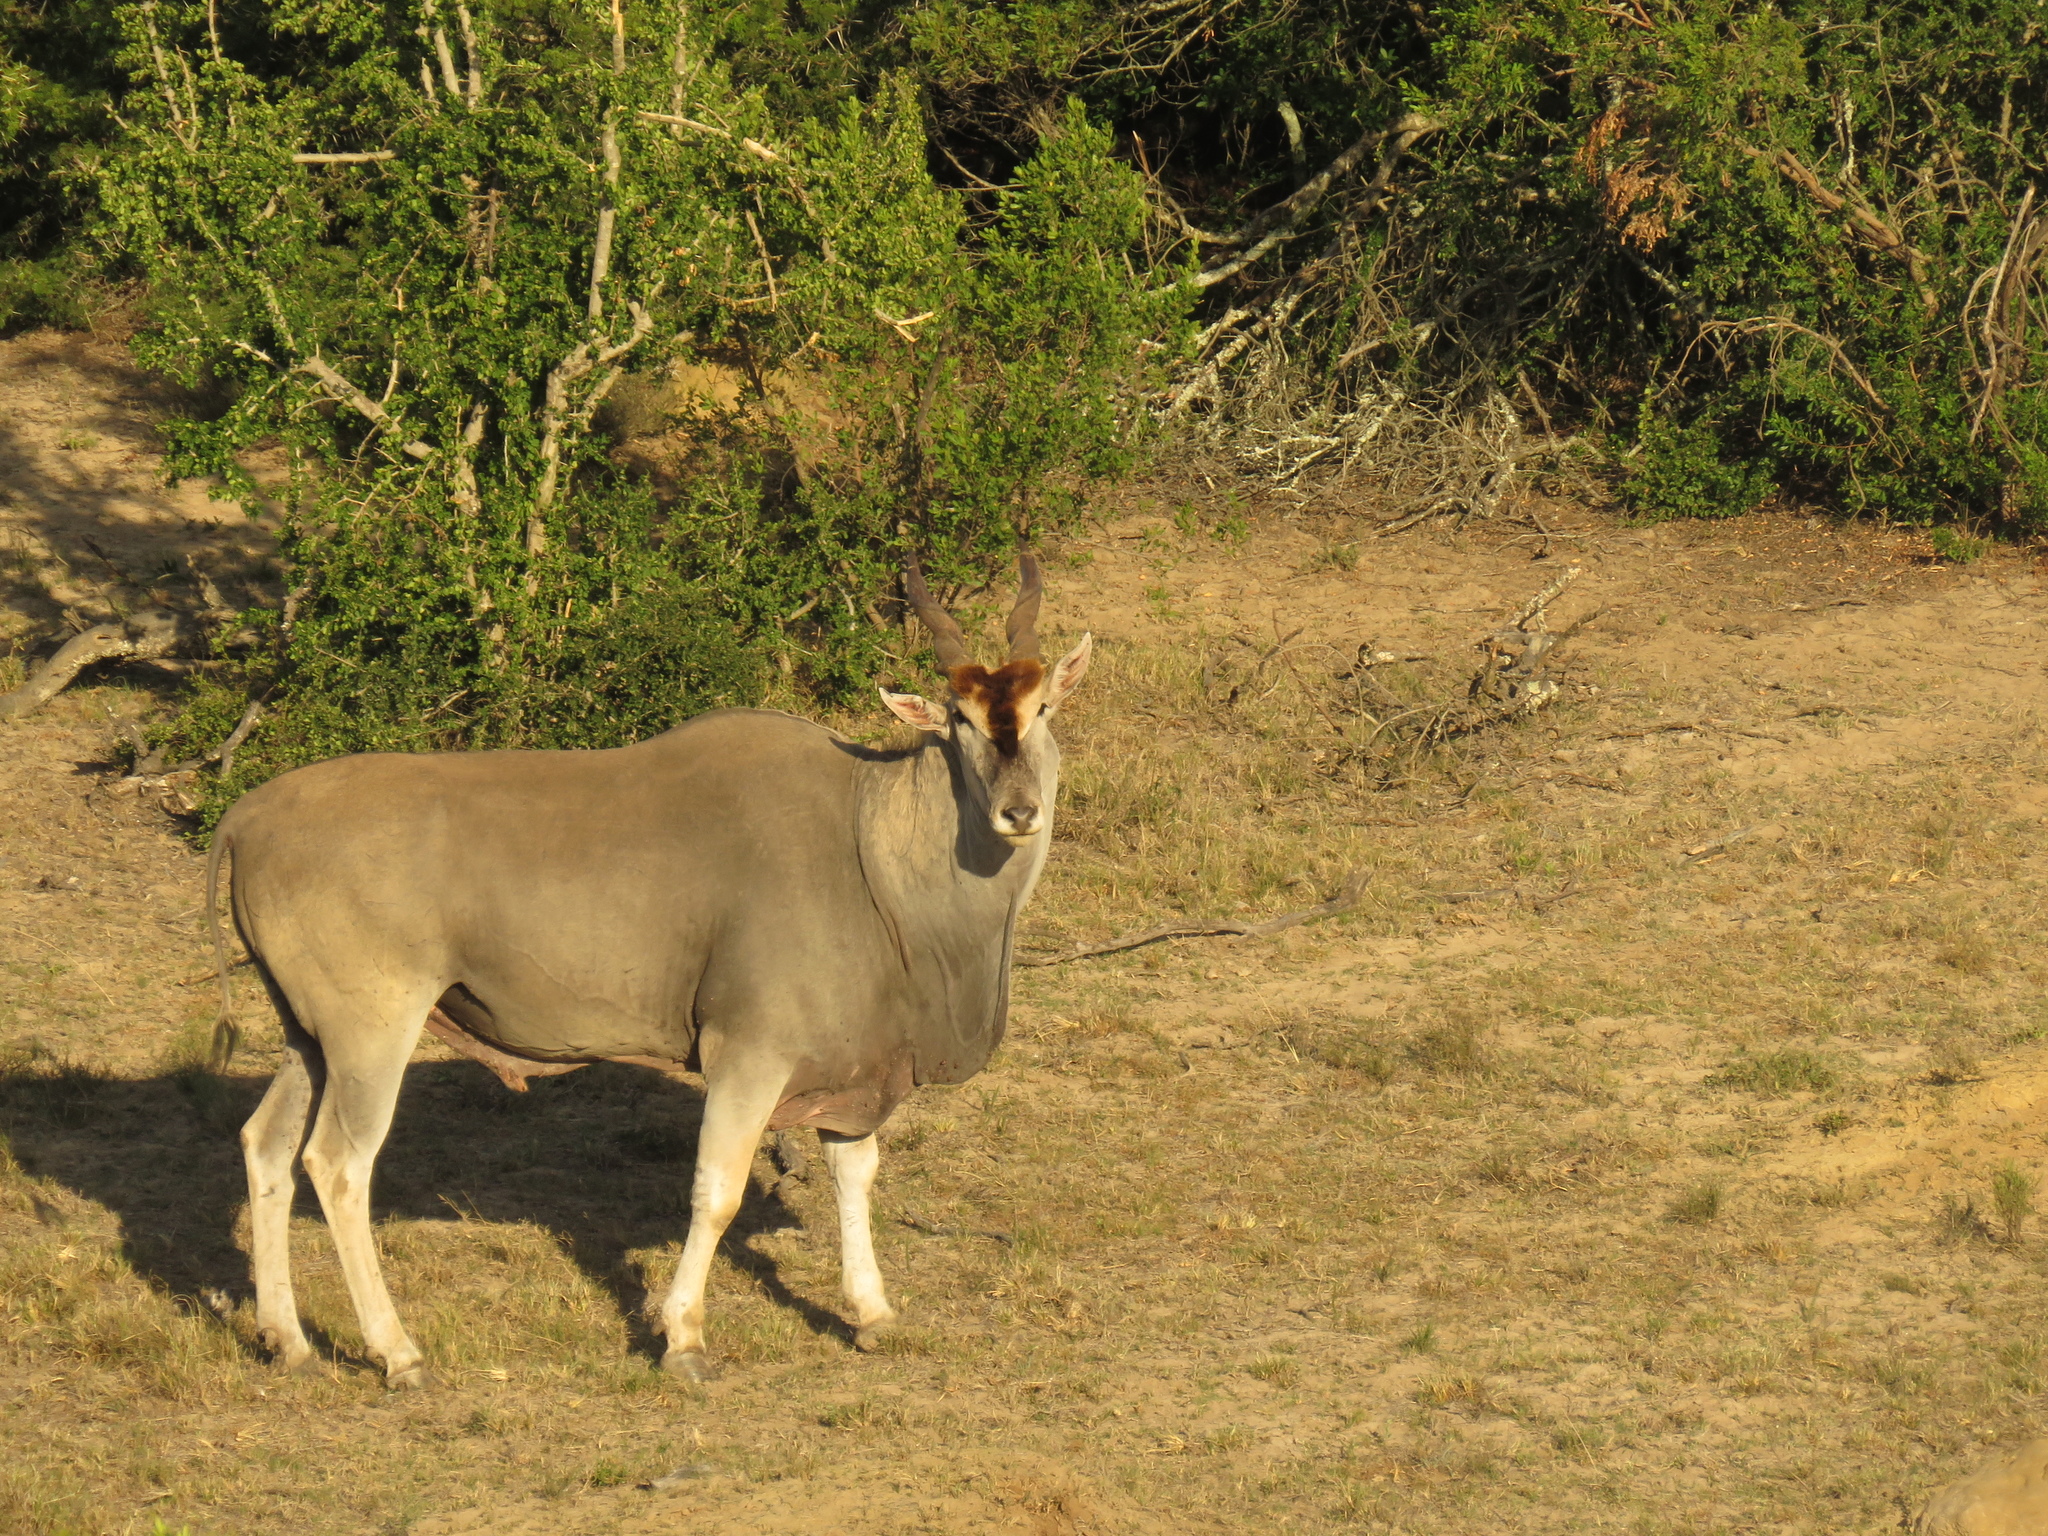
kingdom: Animalia
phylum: Chordata
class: Mammalia
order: Artiodactyla
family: Bovidae
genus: Taurotragus
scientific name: Taurotragus oryx
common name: Common eland
